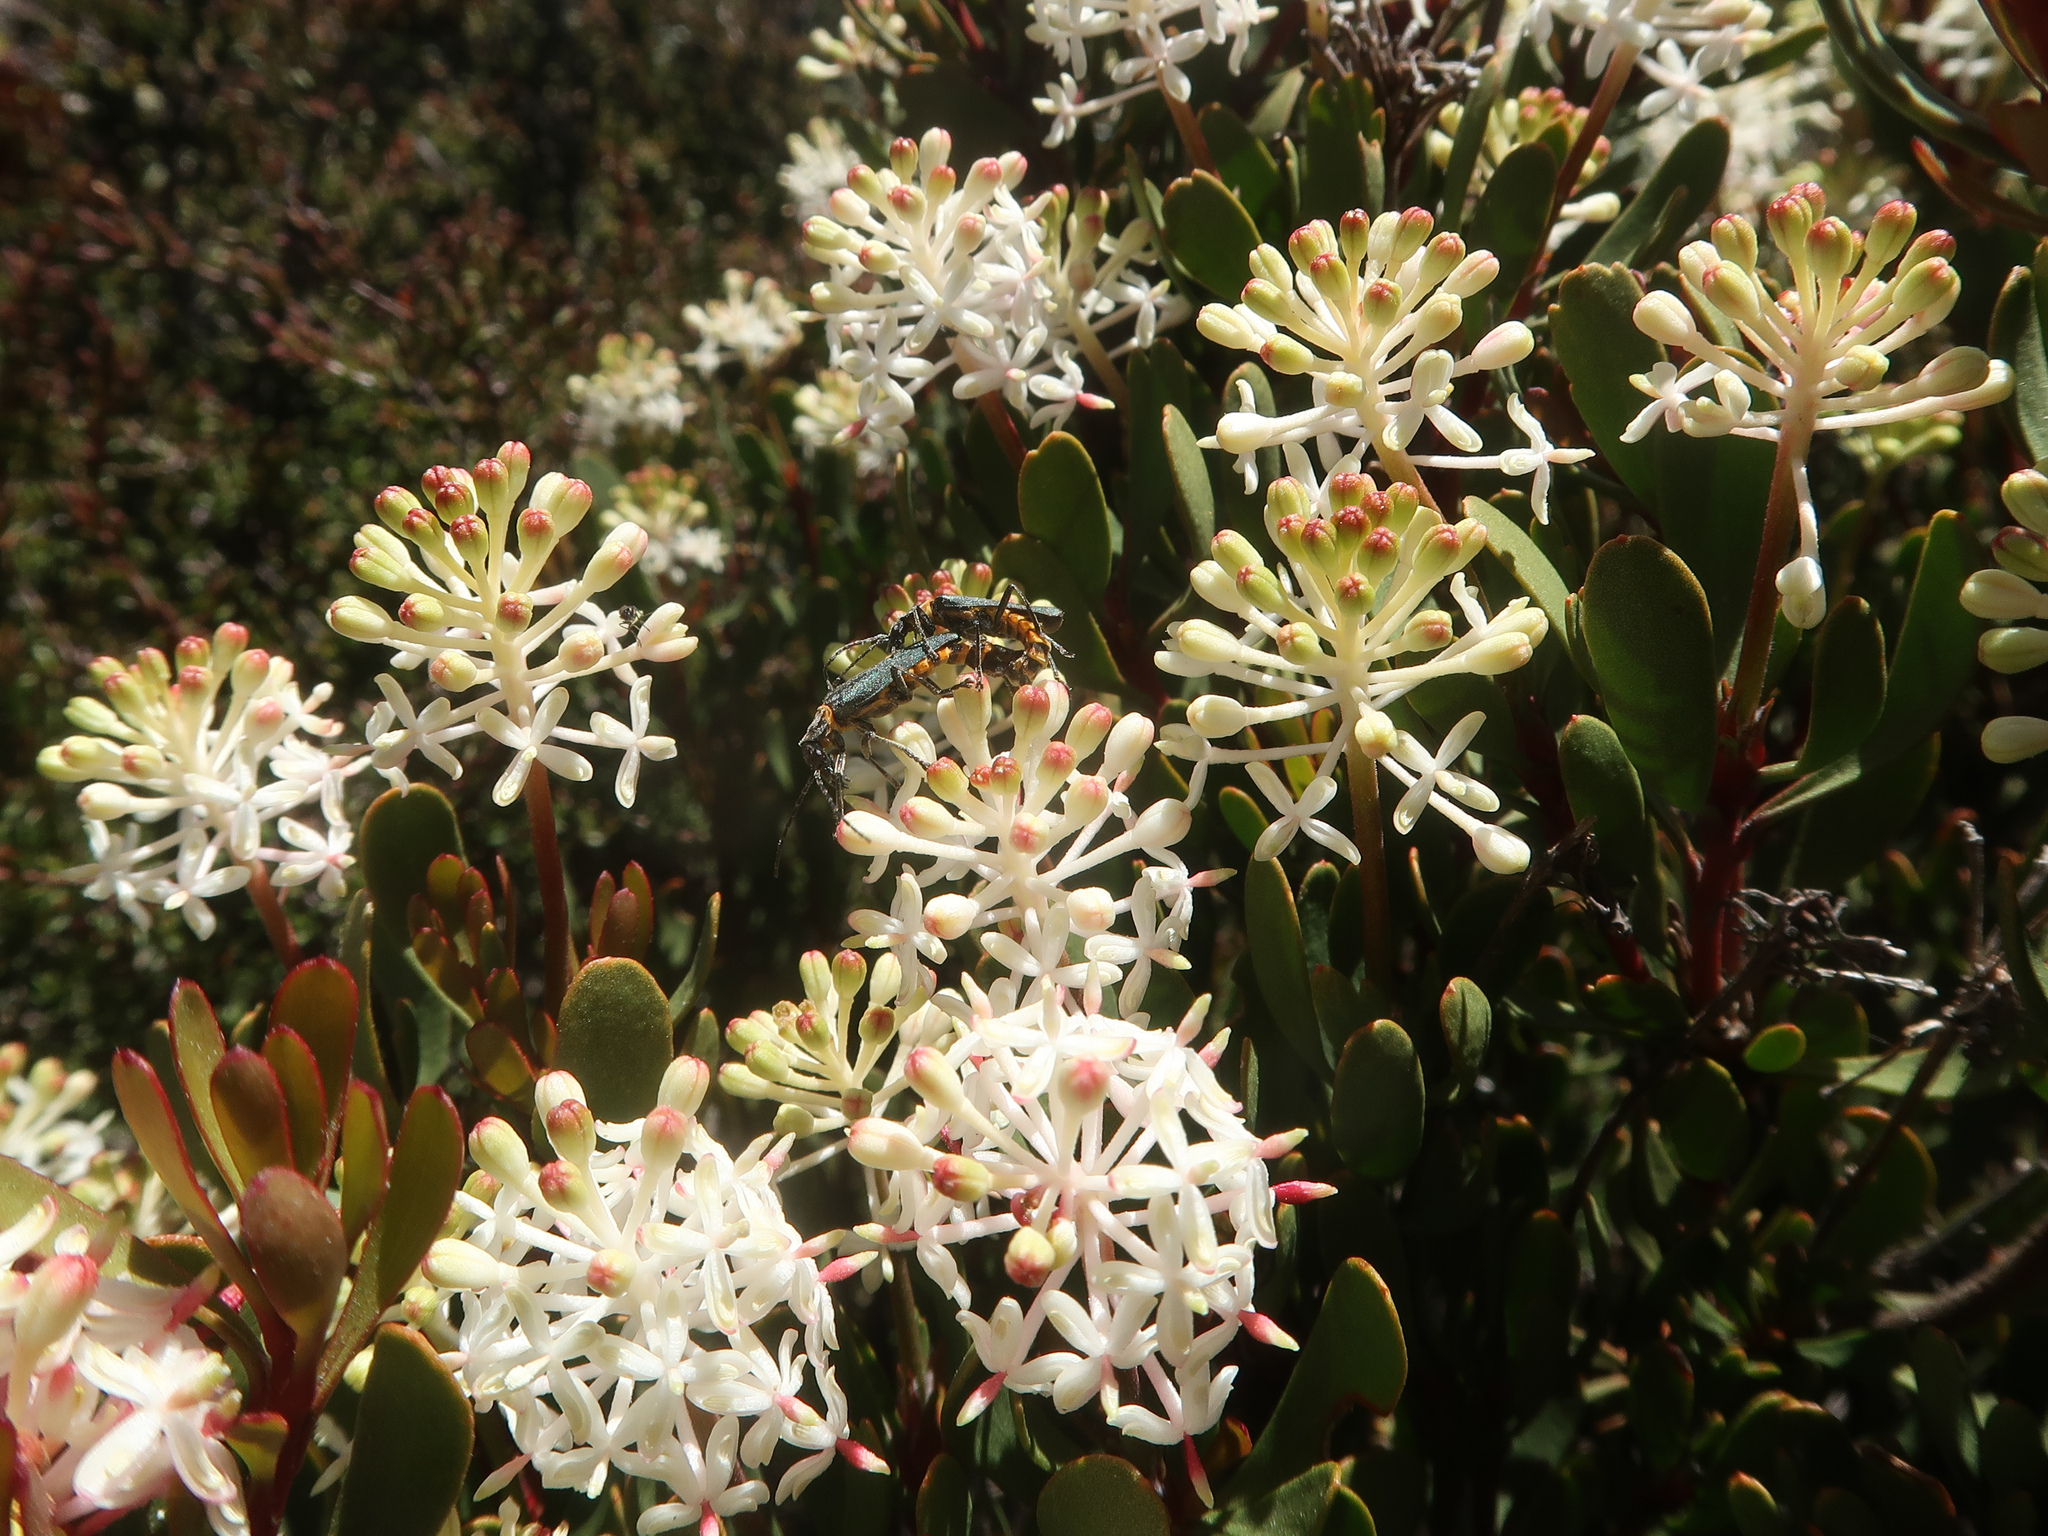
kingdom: Plantae
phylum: Tracheophyta
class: Magnoliopsida
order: Proteales
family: Proteaceae
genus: Bellendena
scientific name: Bellendena montana
